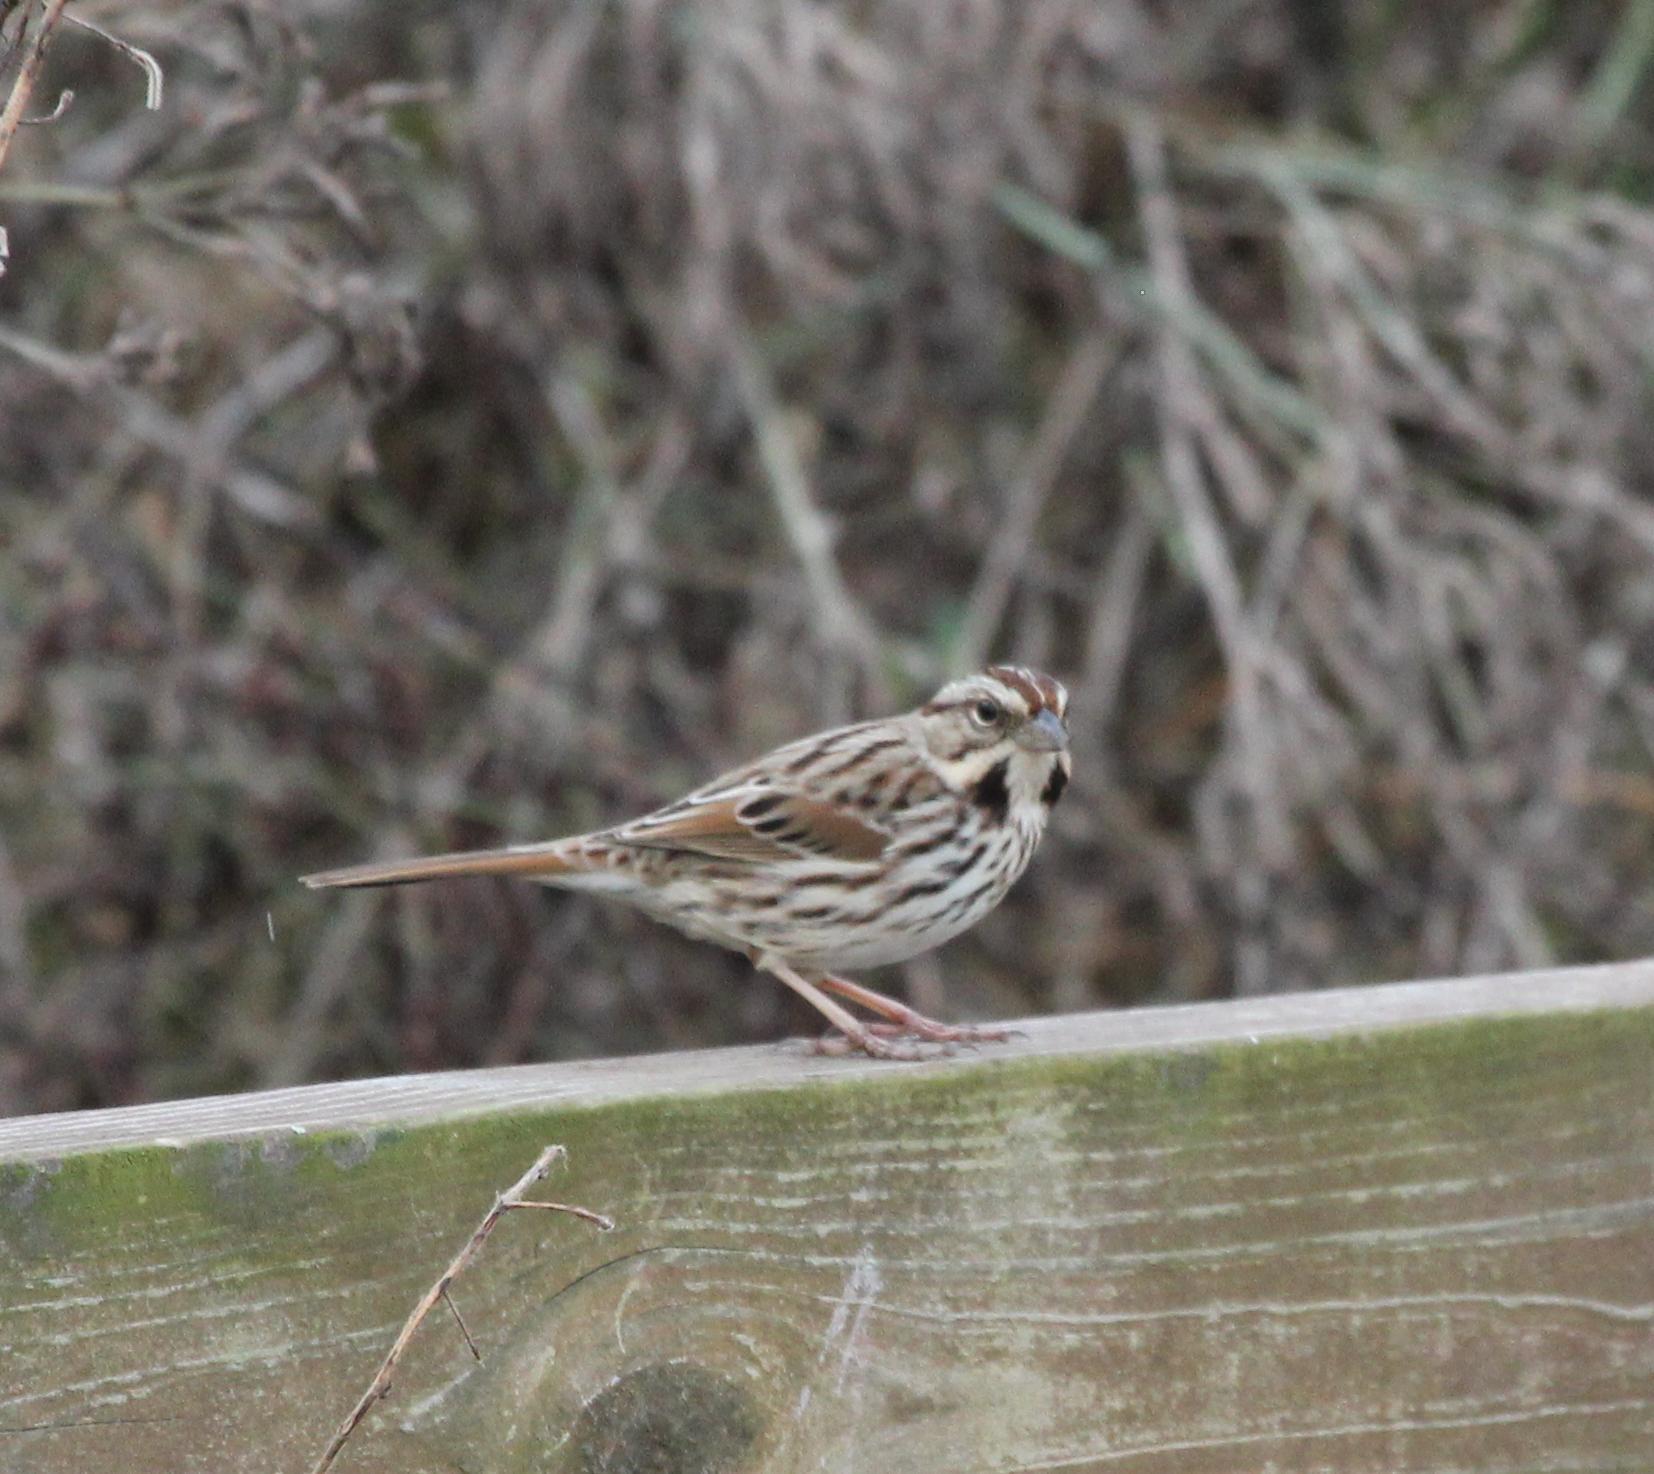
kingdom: Animalia
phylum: Chordata
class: Aves
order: Passeriformes
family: Passerellidae
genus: Melospiza
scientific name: Melospiza melodia
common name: Song sparrow
